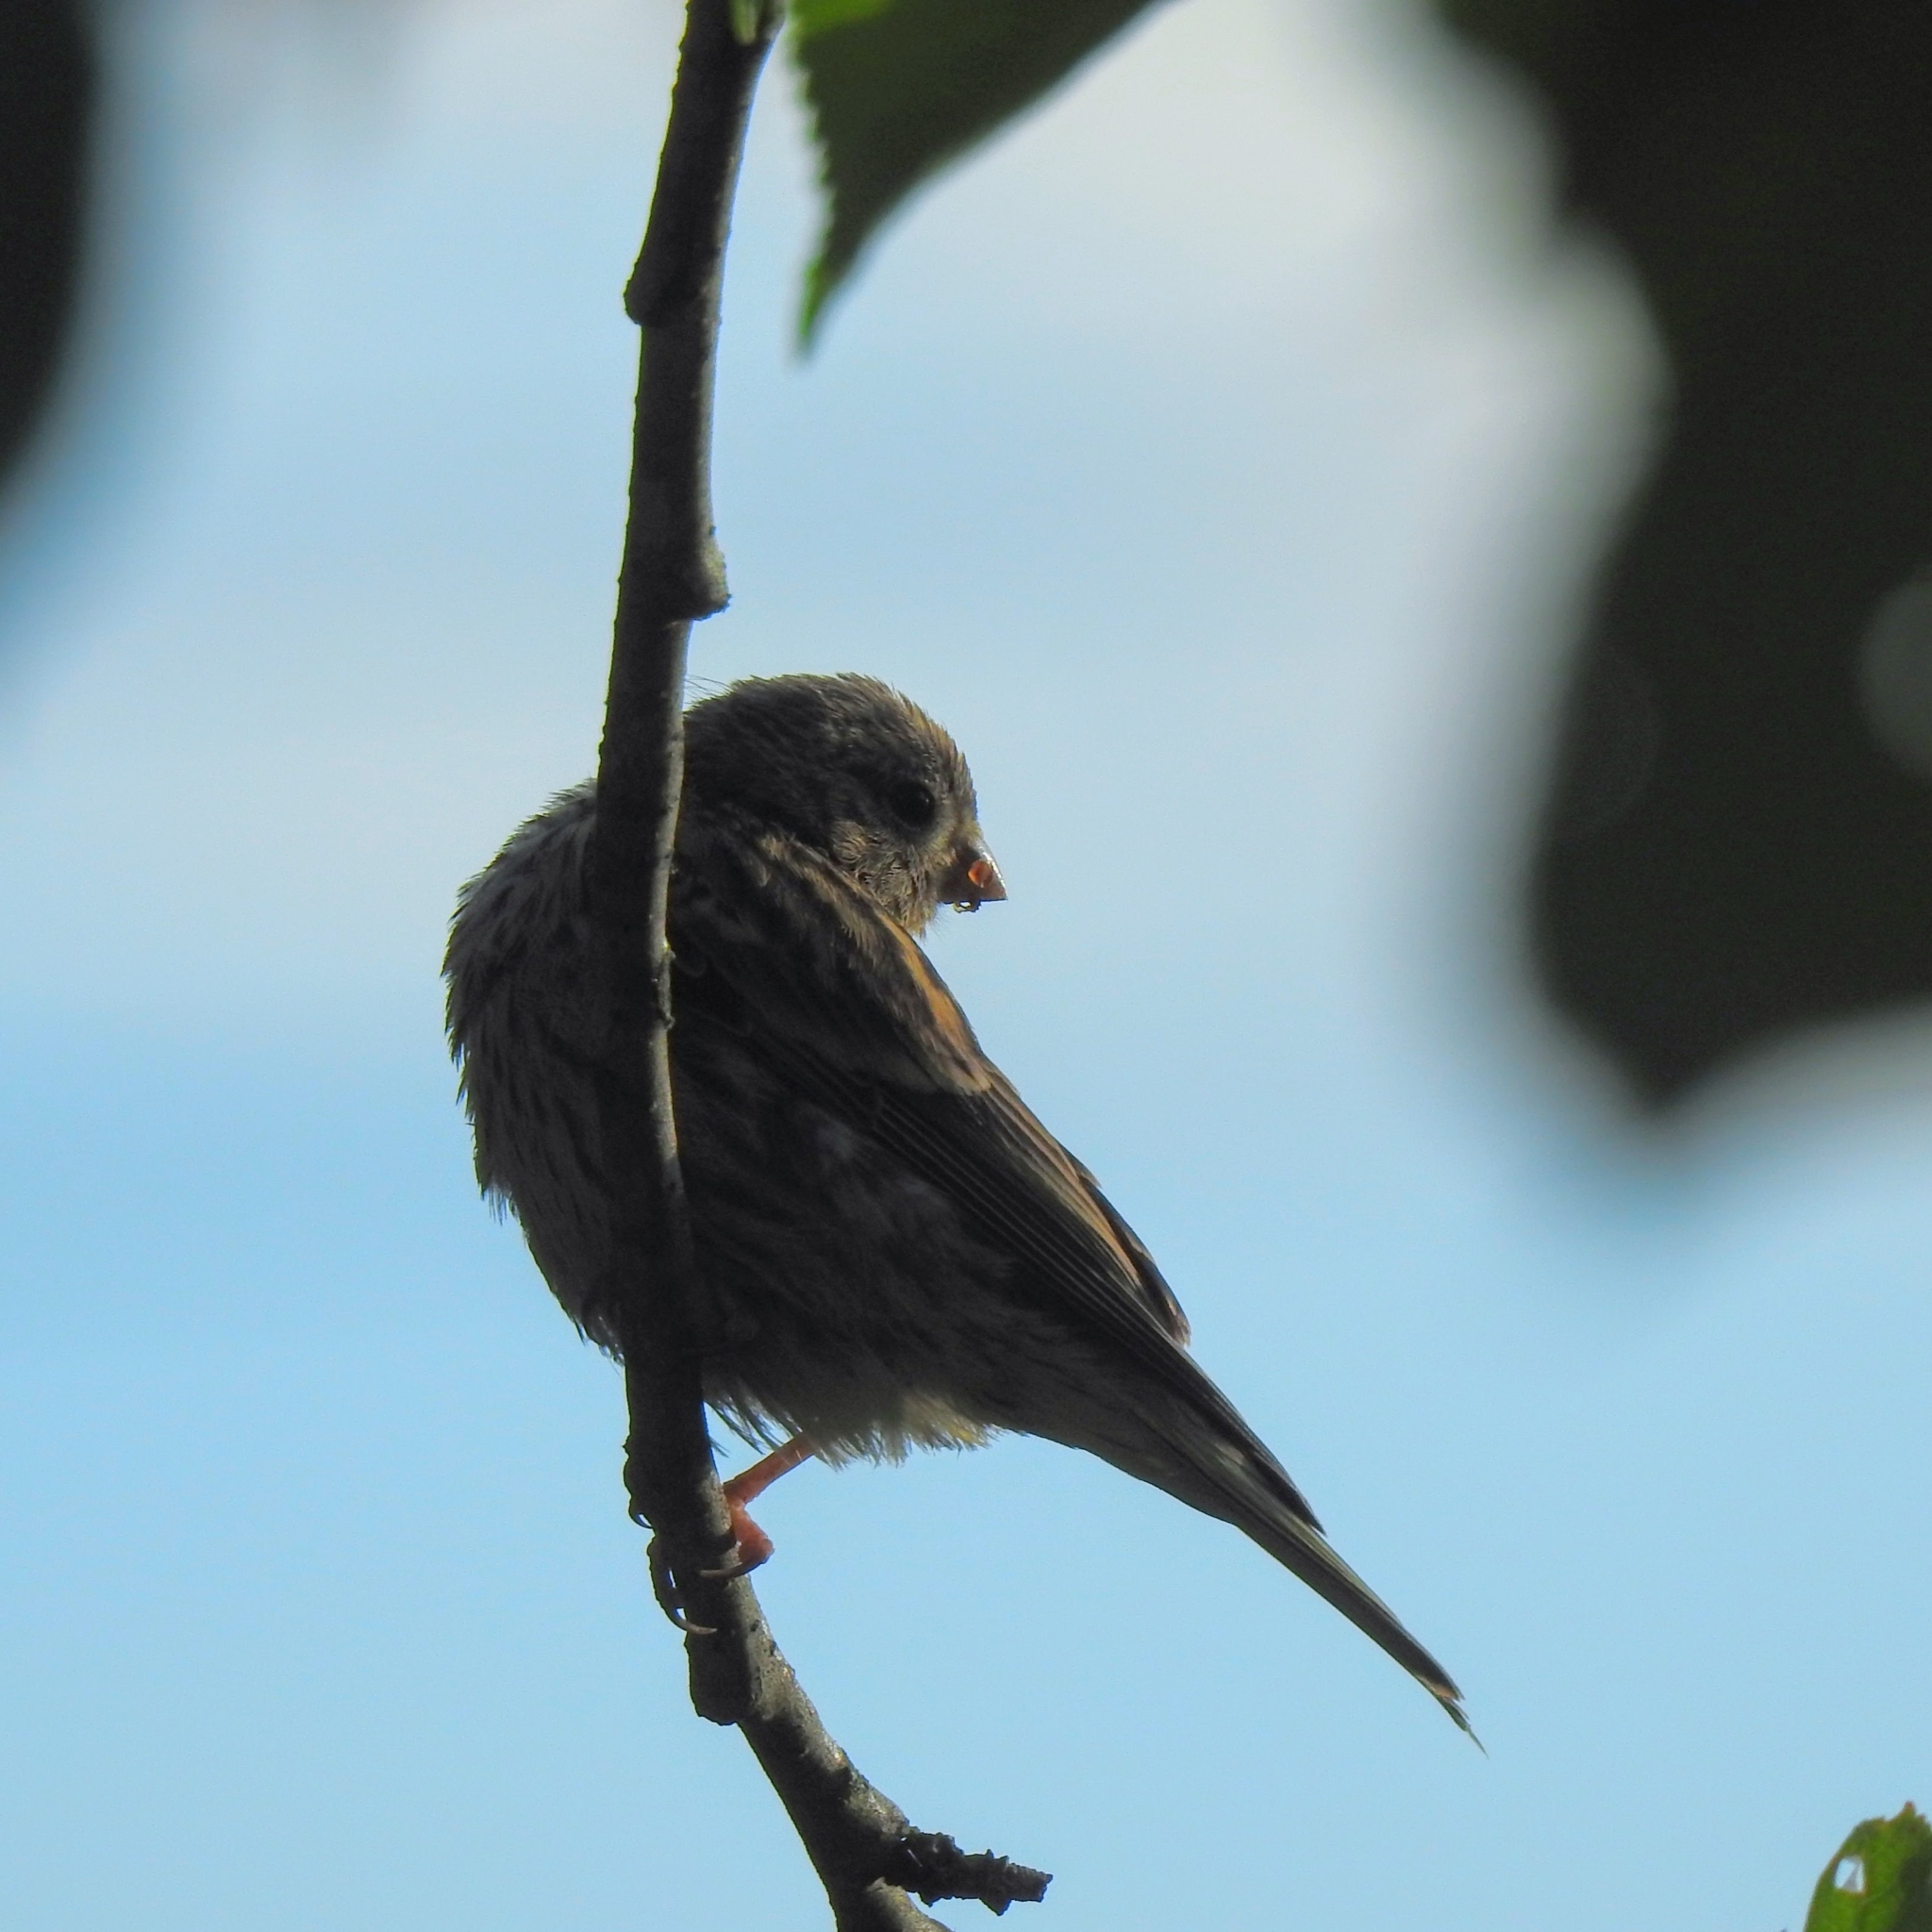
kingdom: Animalia
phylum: Chordata
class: Aves
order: Passeriformes
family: Fringillidae
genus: Serinus
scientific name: Serinus serinus
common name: European serin
